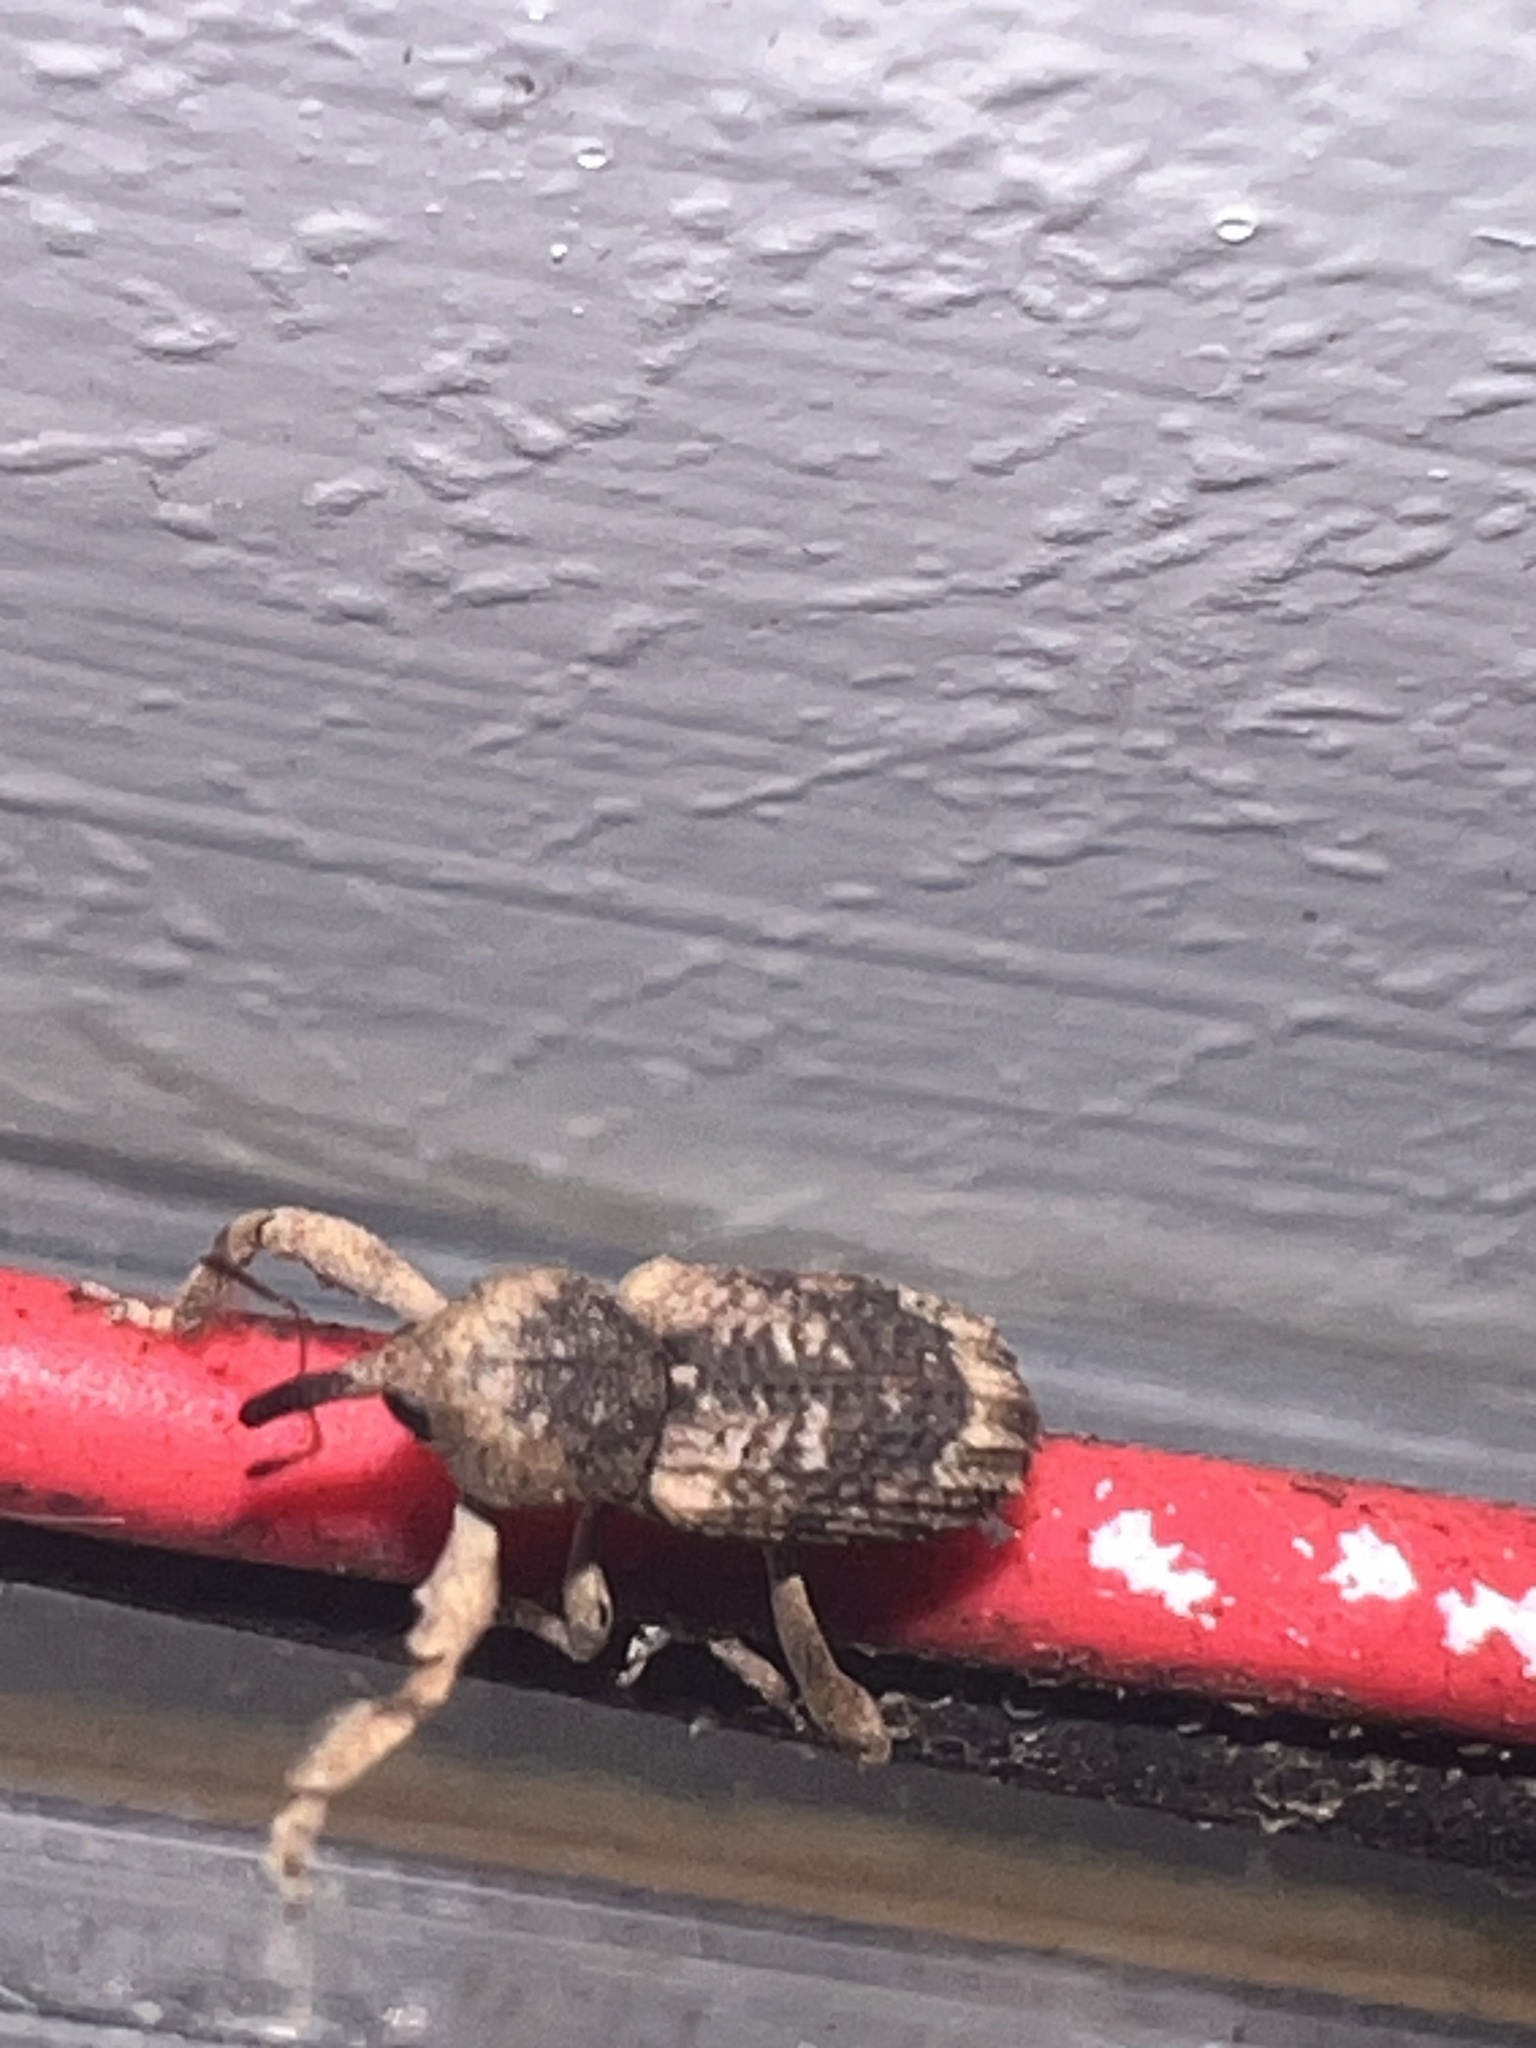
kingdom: Animalia
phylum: Arthropoda
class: Insecta
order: Coleoptera
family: Curculionidae
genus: Camptorhinus
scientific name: Camptorhinus dorsalis
